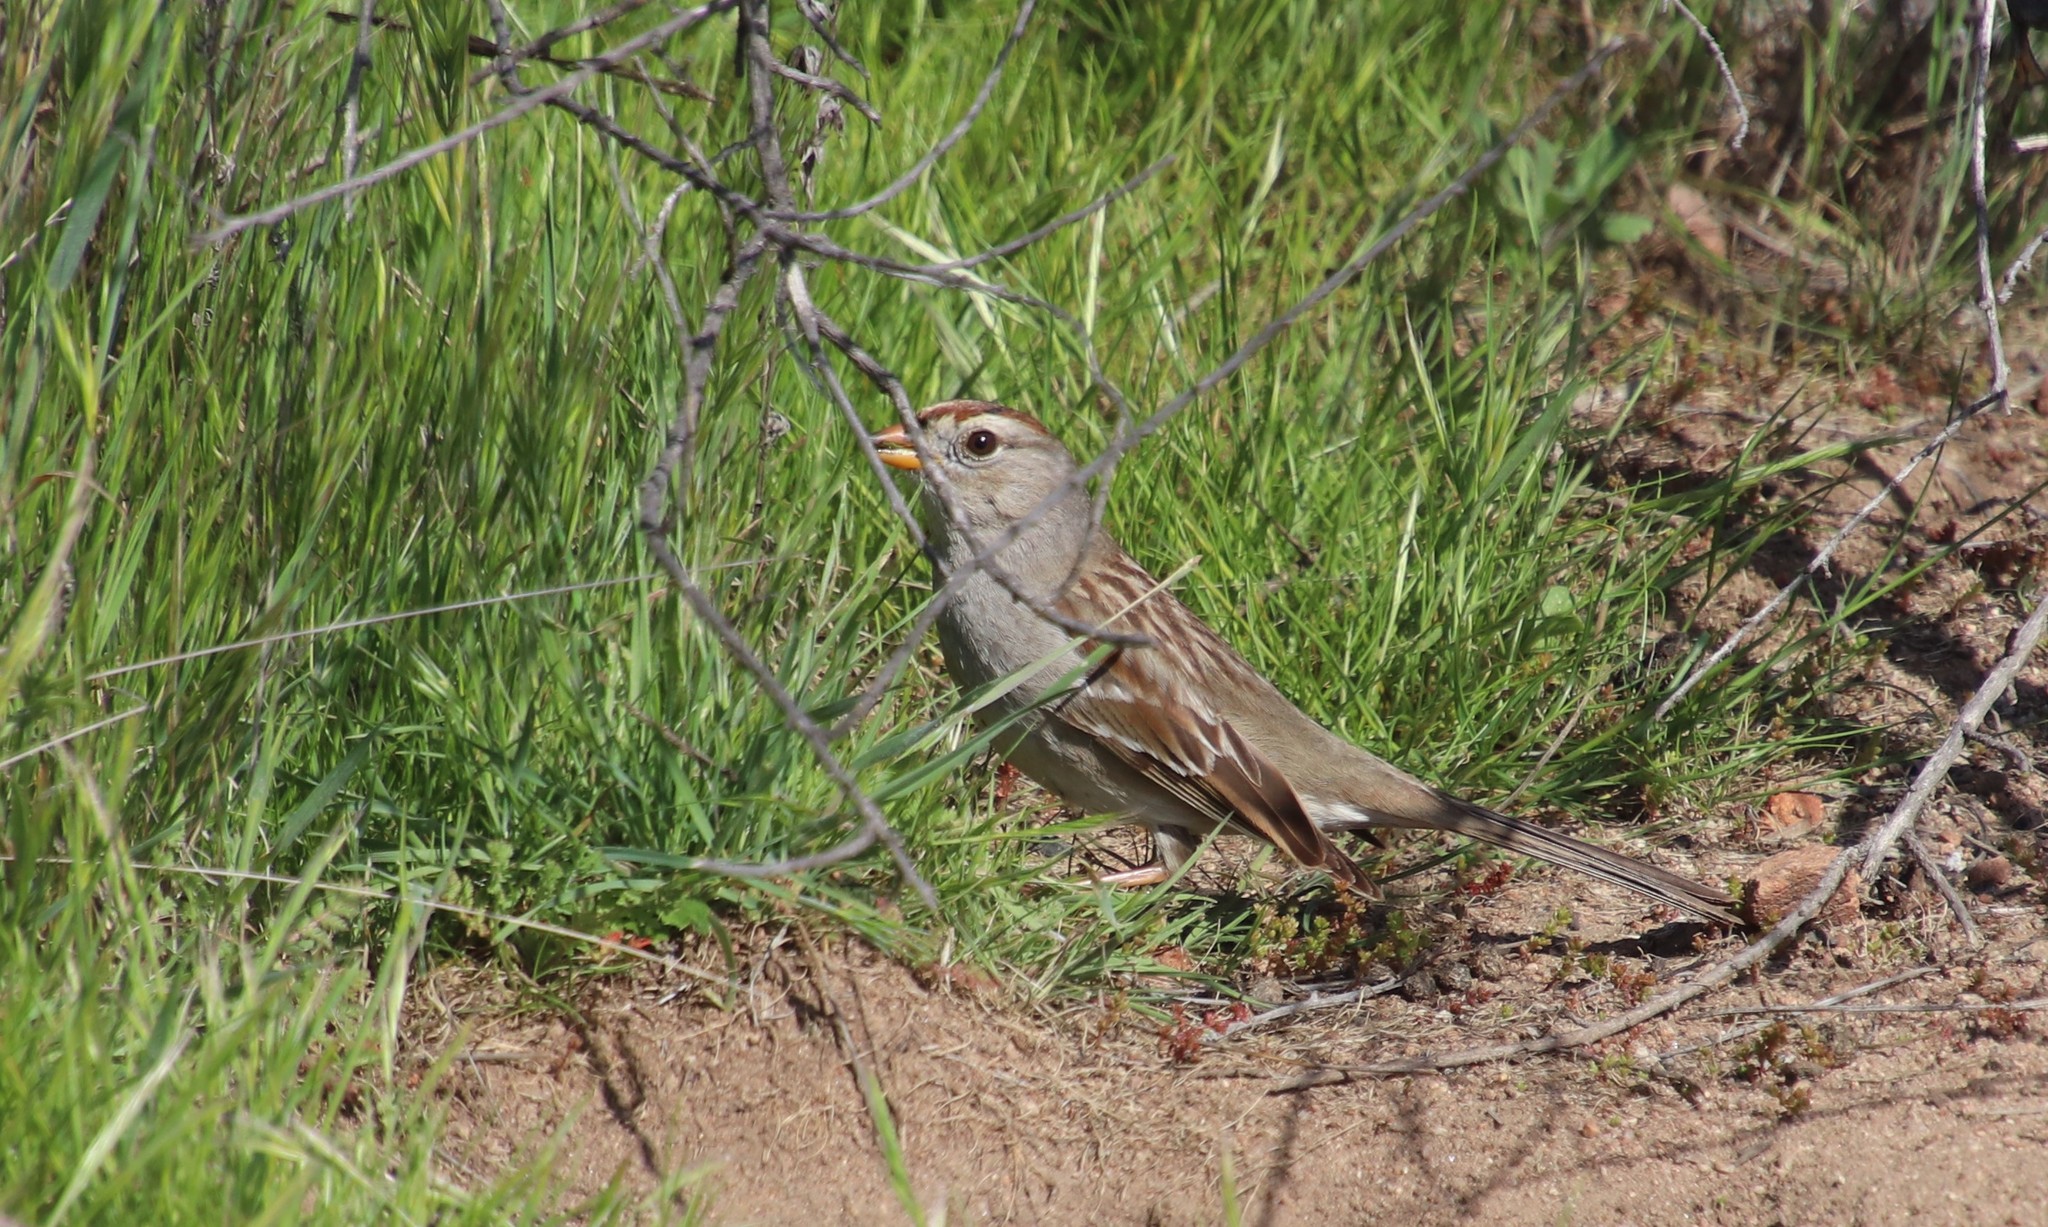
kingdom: Animalia
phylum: Chordata
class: Aves
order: Passeriformes
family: Passerellidae
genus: Zonotrichia
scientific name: Zonotrichia leucophrys
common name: White-crowned sparrow
